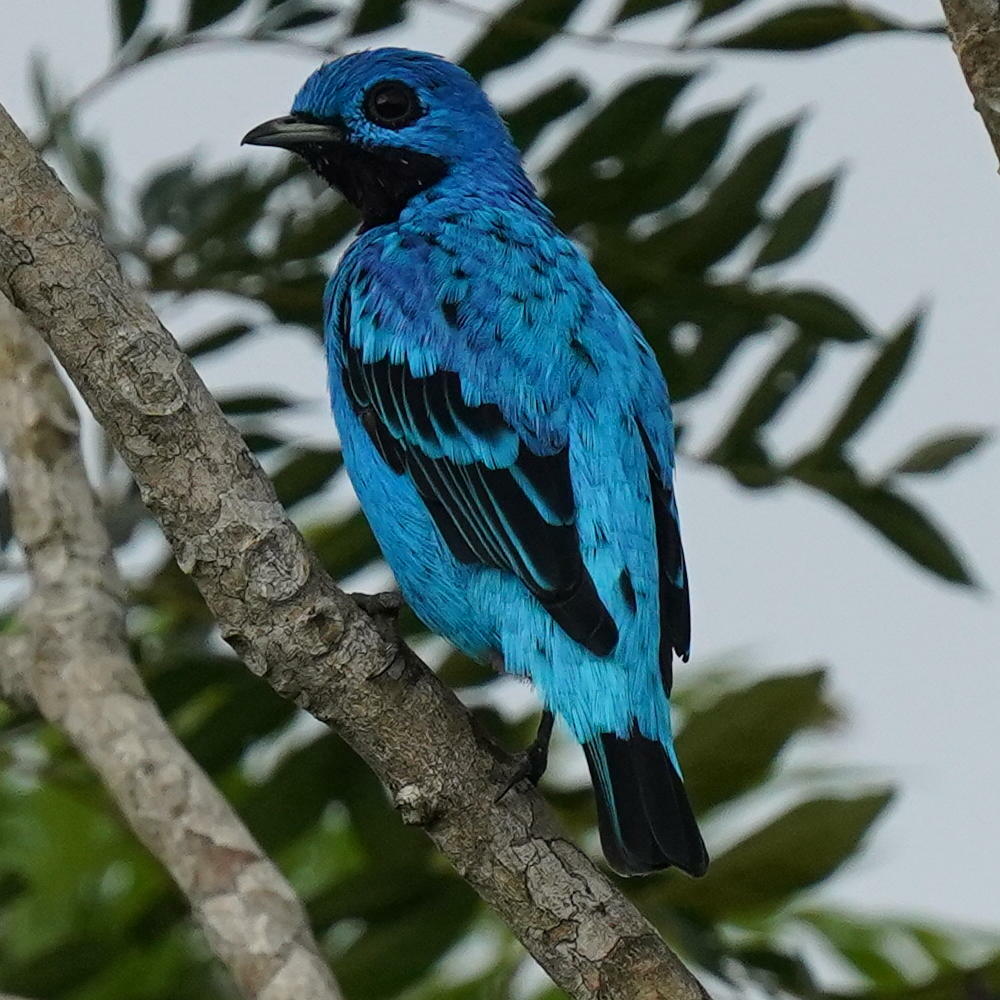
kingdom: Animalia
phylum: Chordata
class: Aves
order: Passeriformes
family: Cotingidae
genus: Cotinga
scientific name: Cotinga nattererii
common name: Blue cotinga
